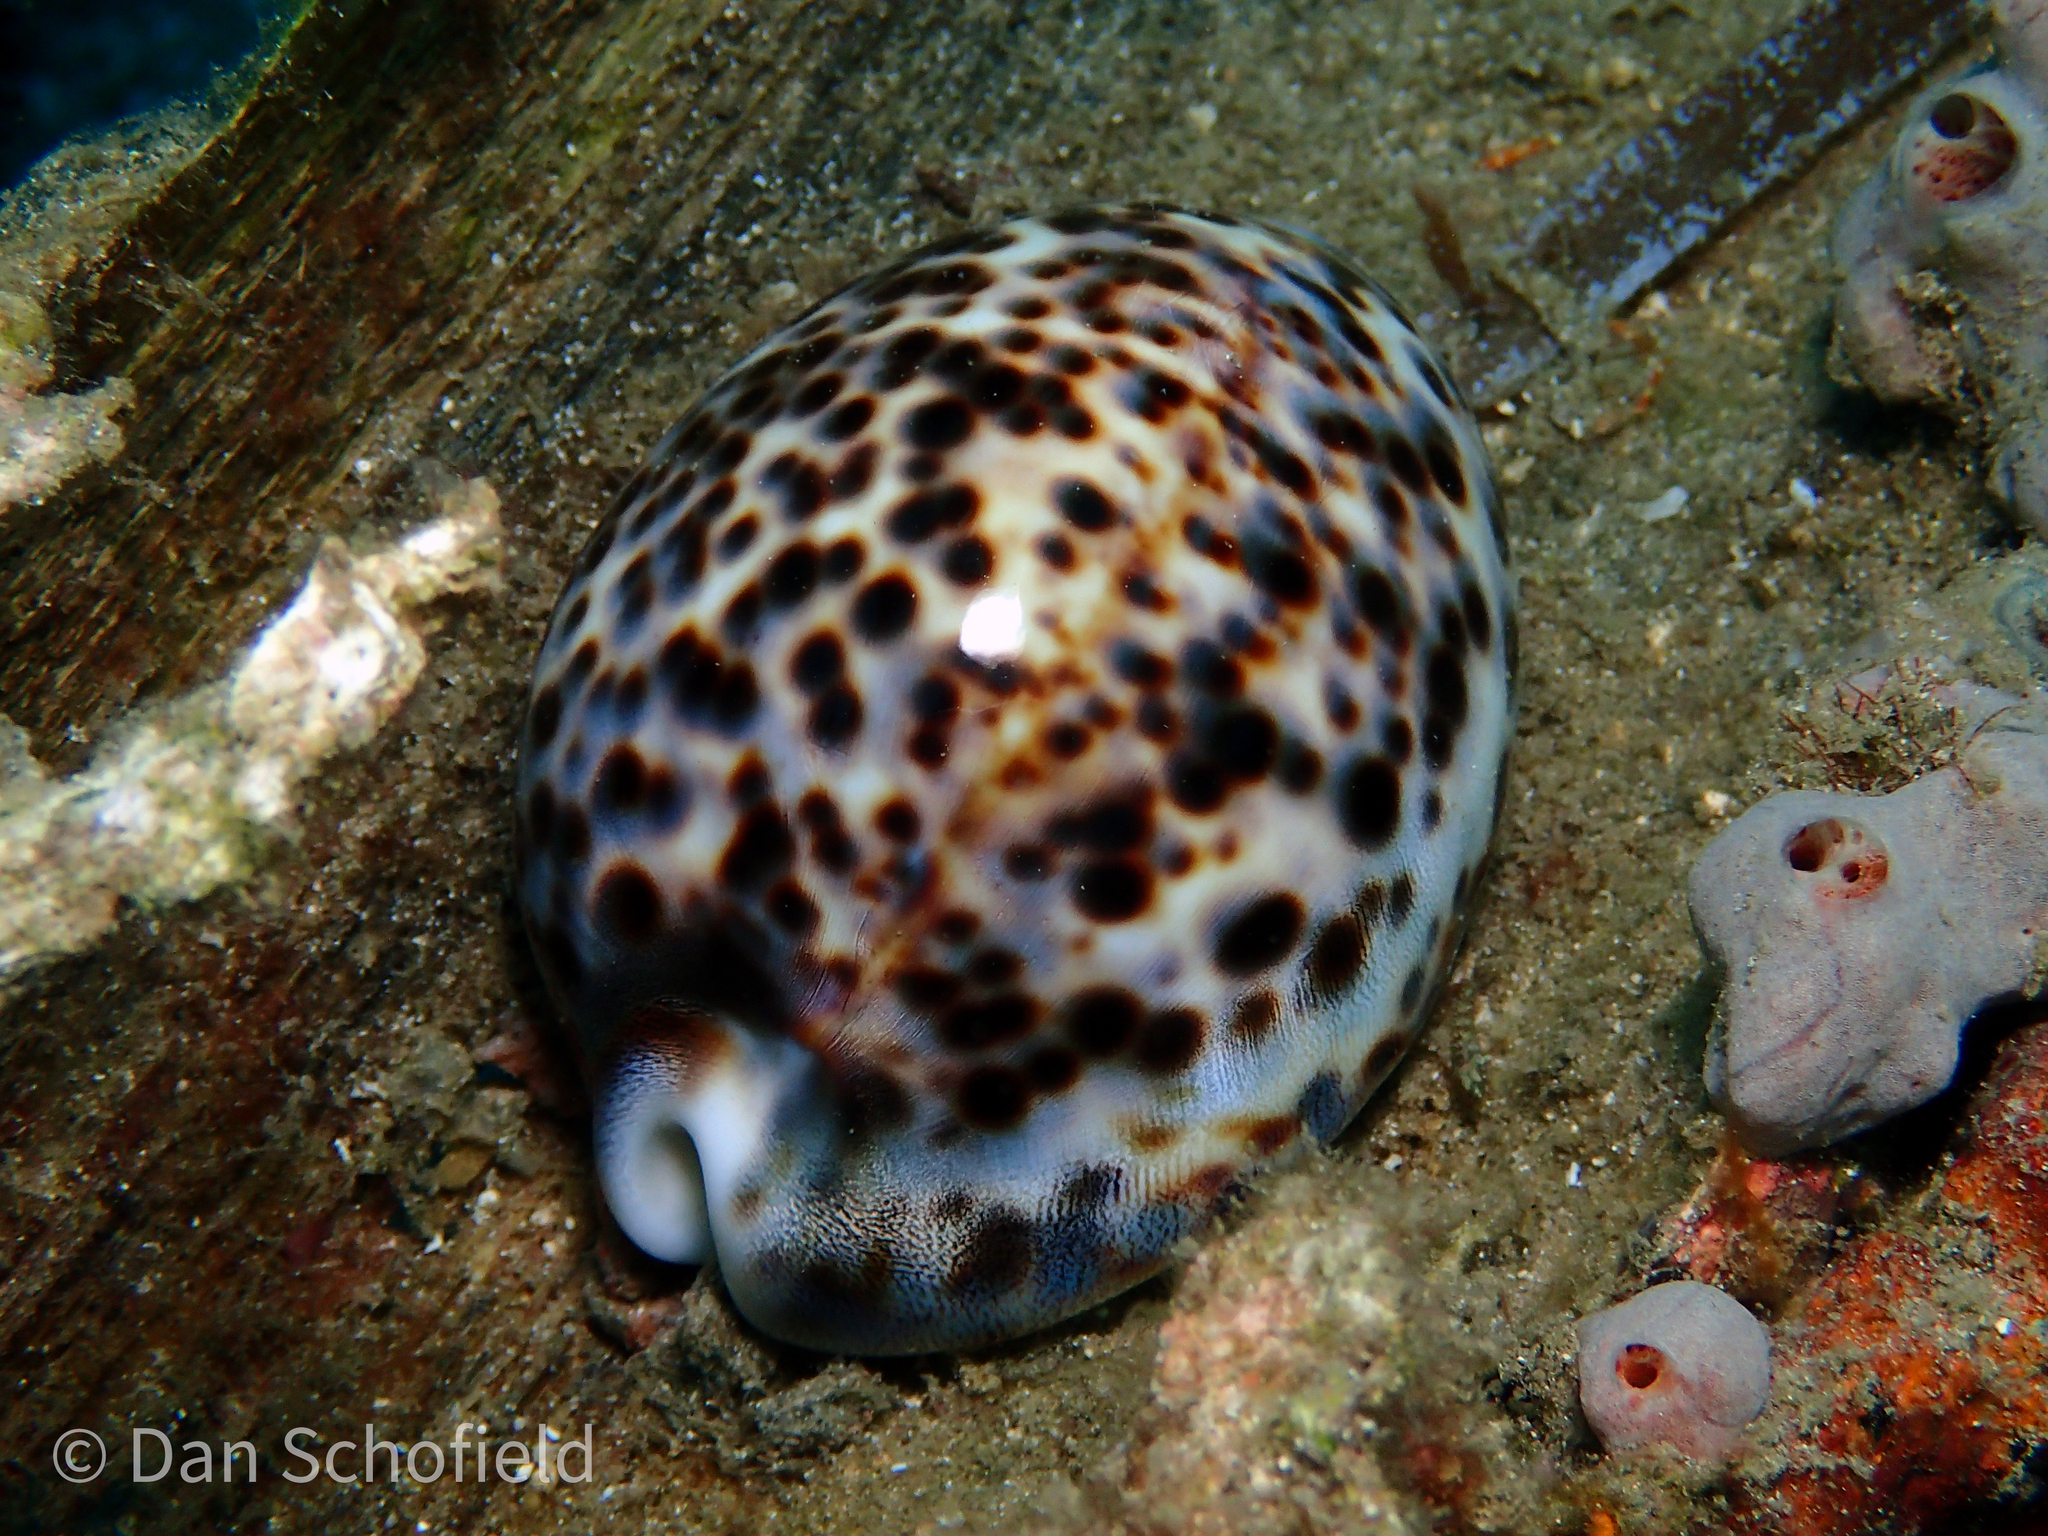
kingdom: Animalia
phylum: Mollusca
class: Gastropoda
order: Littorinimorpha
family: Cypraeidae
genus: Cypraea
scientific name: Cypraea tigris
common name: Tiger cowrie
